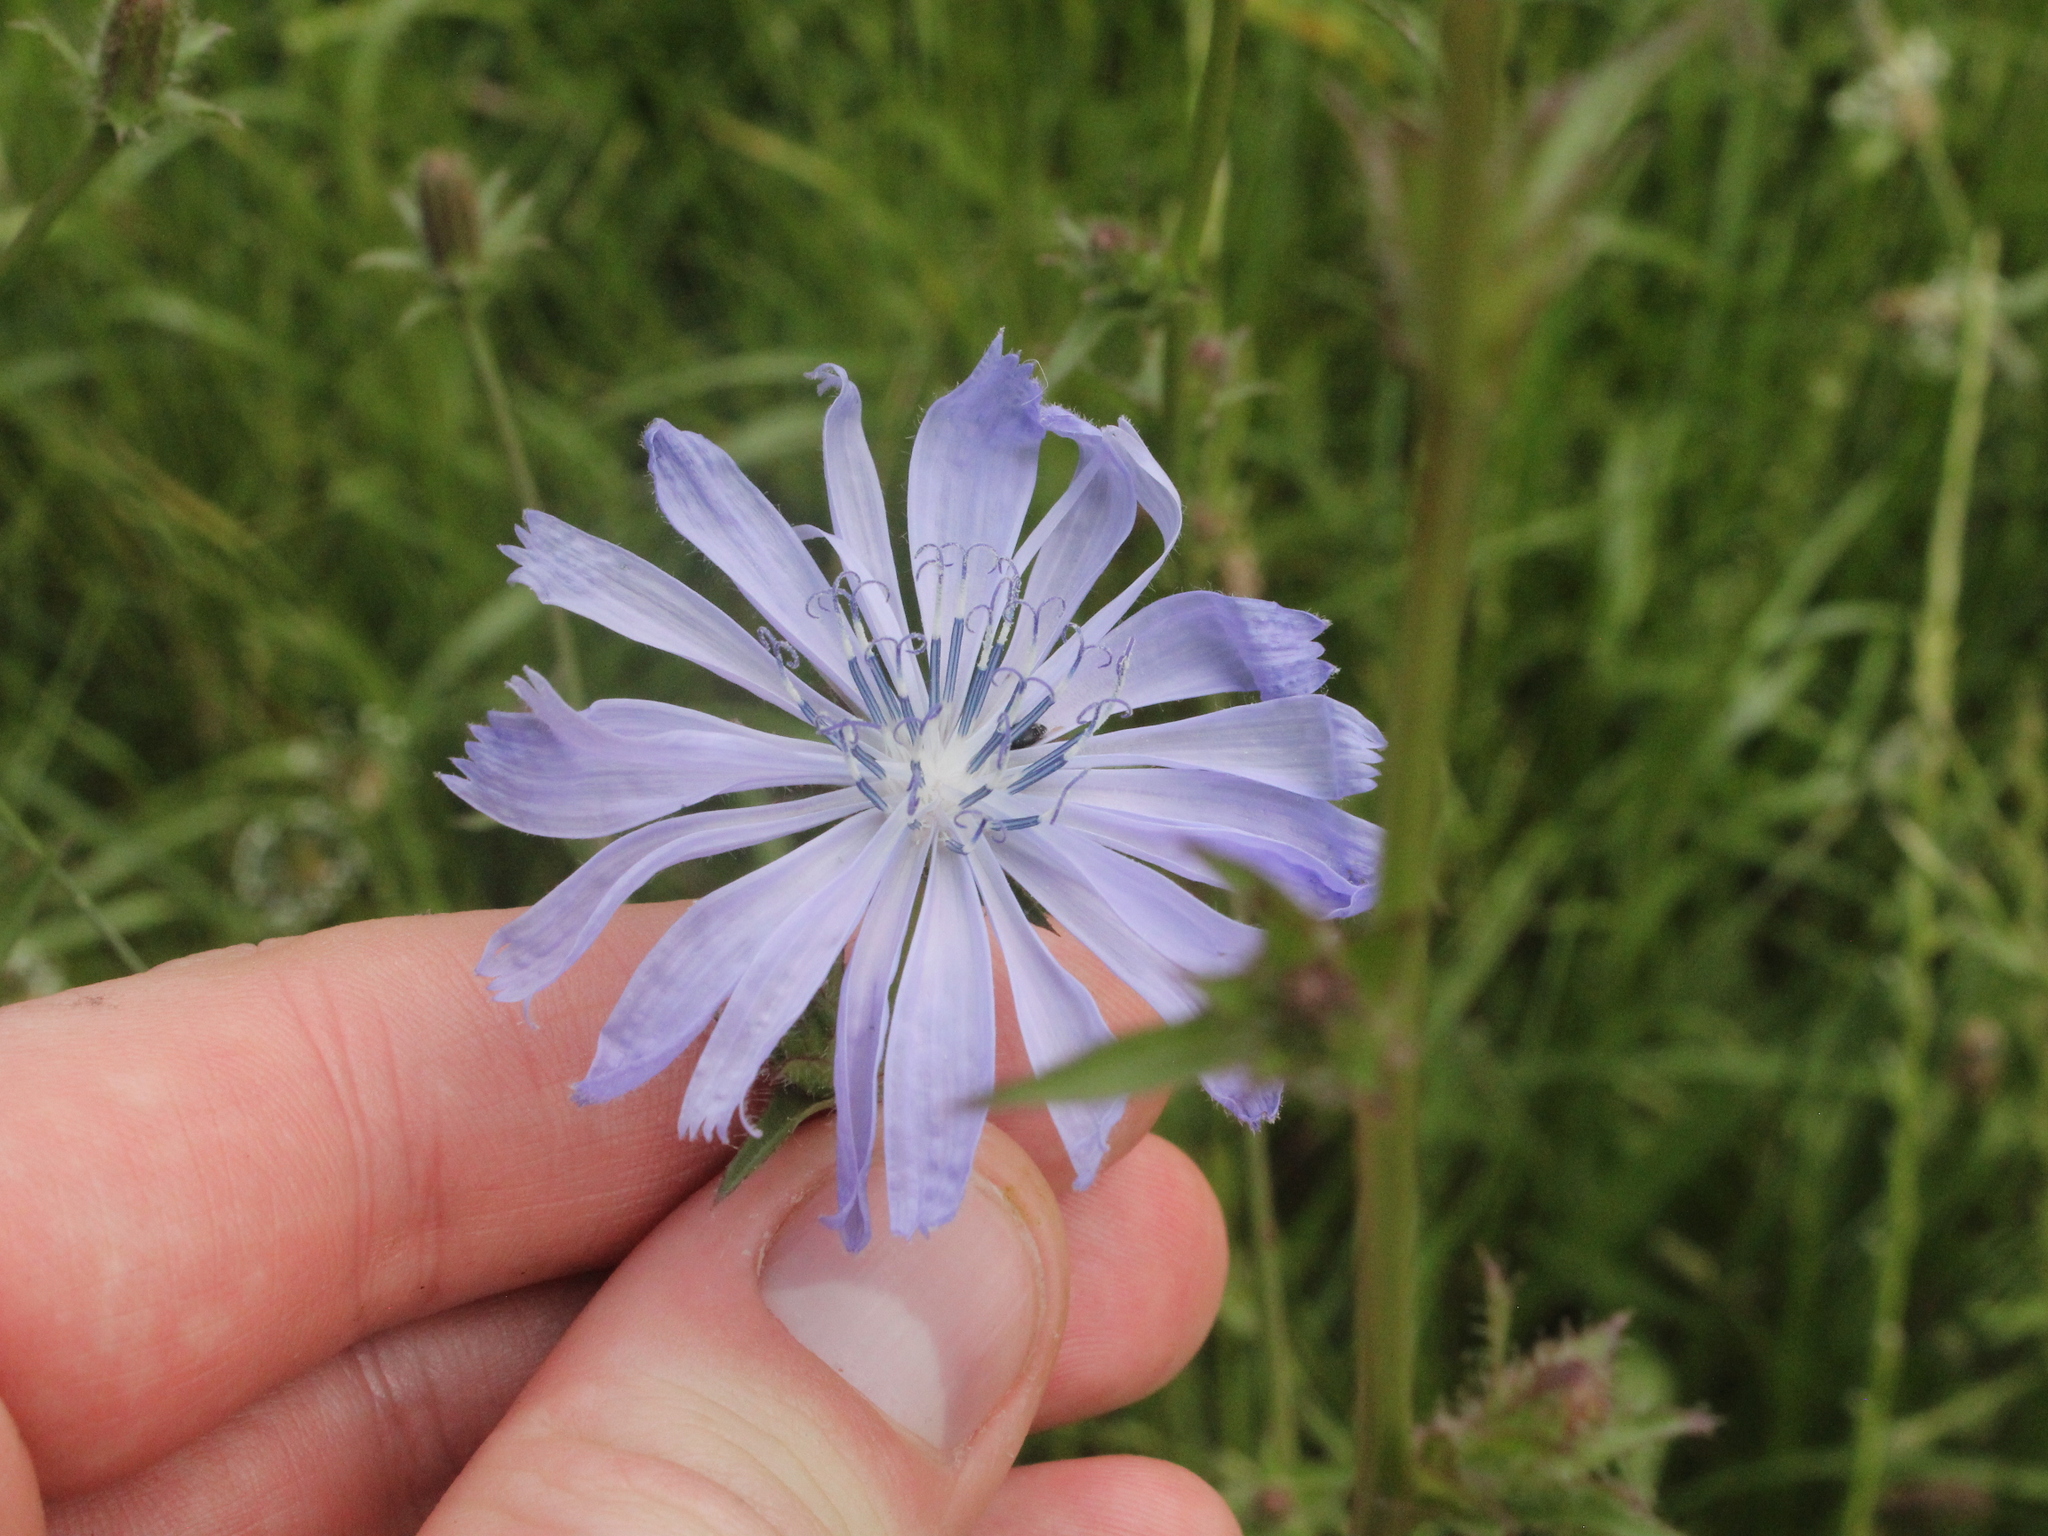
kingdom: Plantae
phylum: Tracheophyta
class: Magnoliopsida
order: Asterales
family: Asteraceae
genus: Cichorium
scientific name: Cichorium intybus
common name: Chicory
